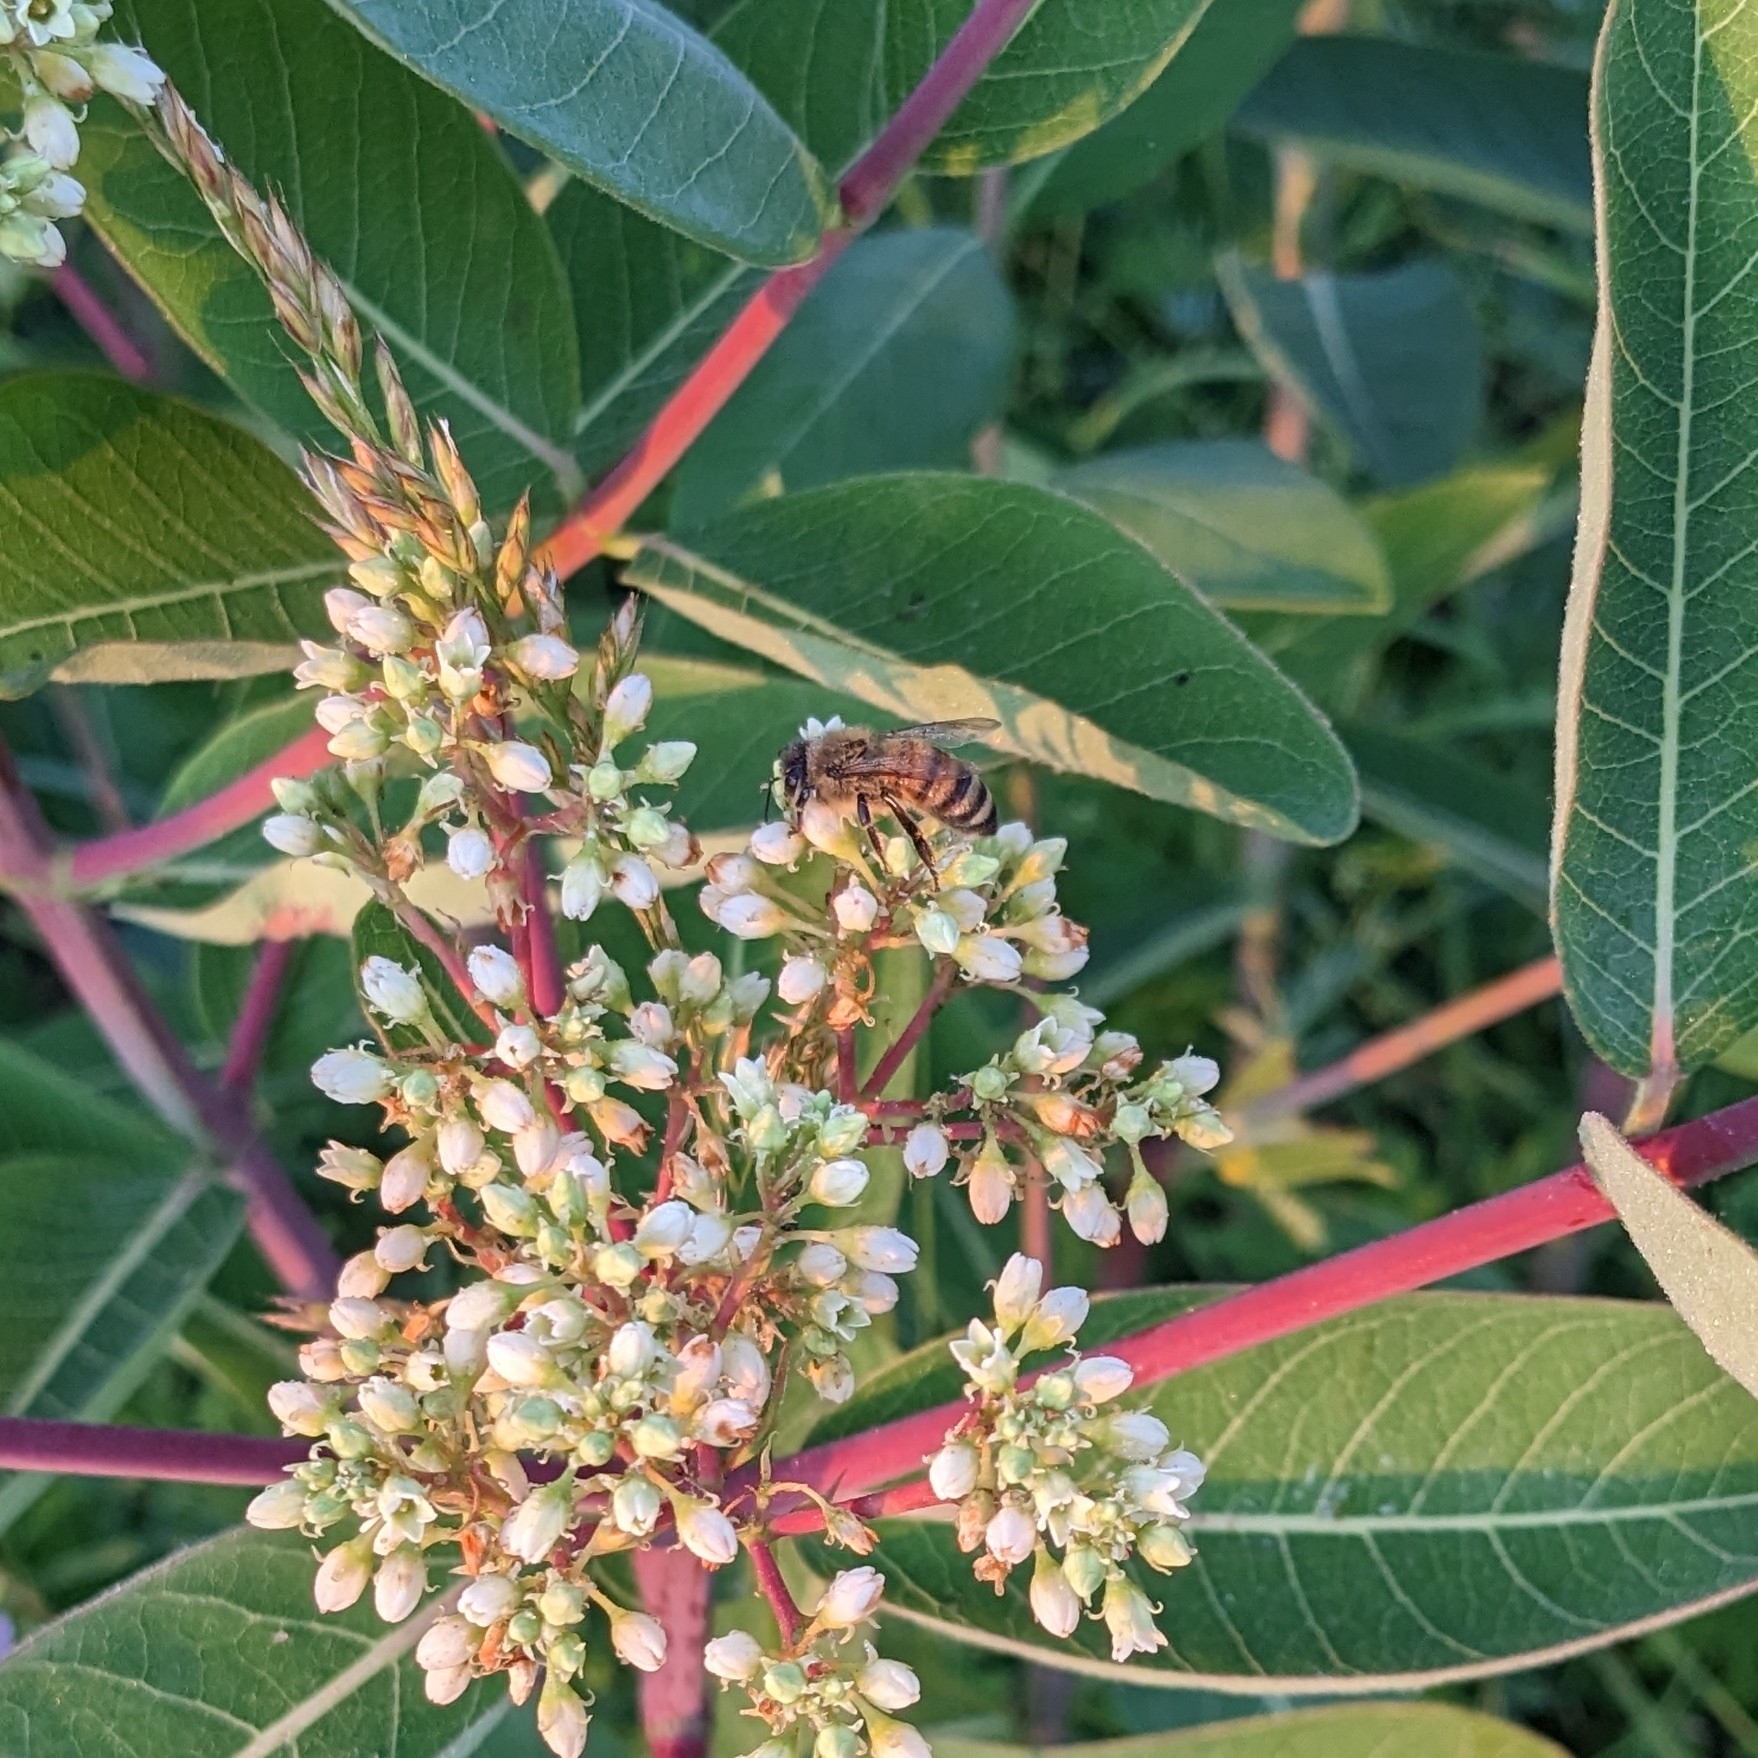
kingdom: Animalia
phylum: Arthropoda
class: Insecta
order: Hymenoptera
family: Apidae
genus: Apis
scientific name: Apis mellifera
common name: Honey bee
